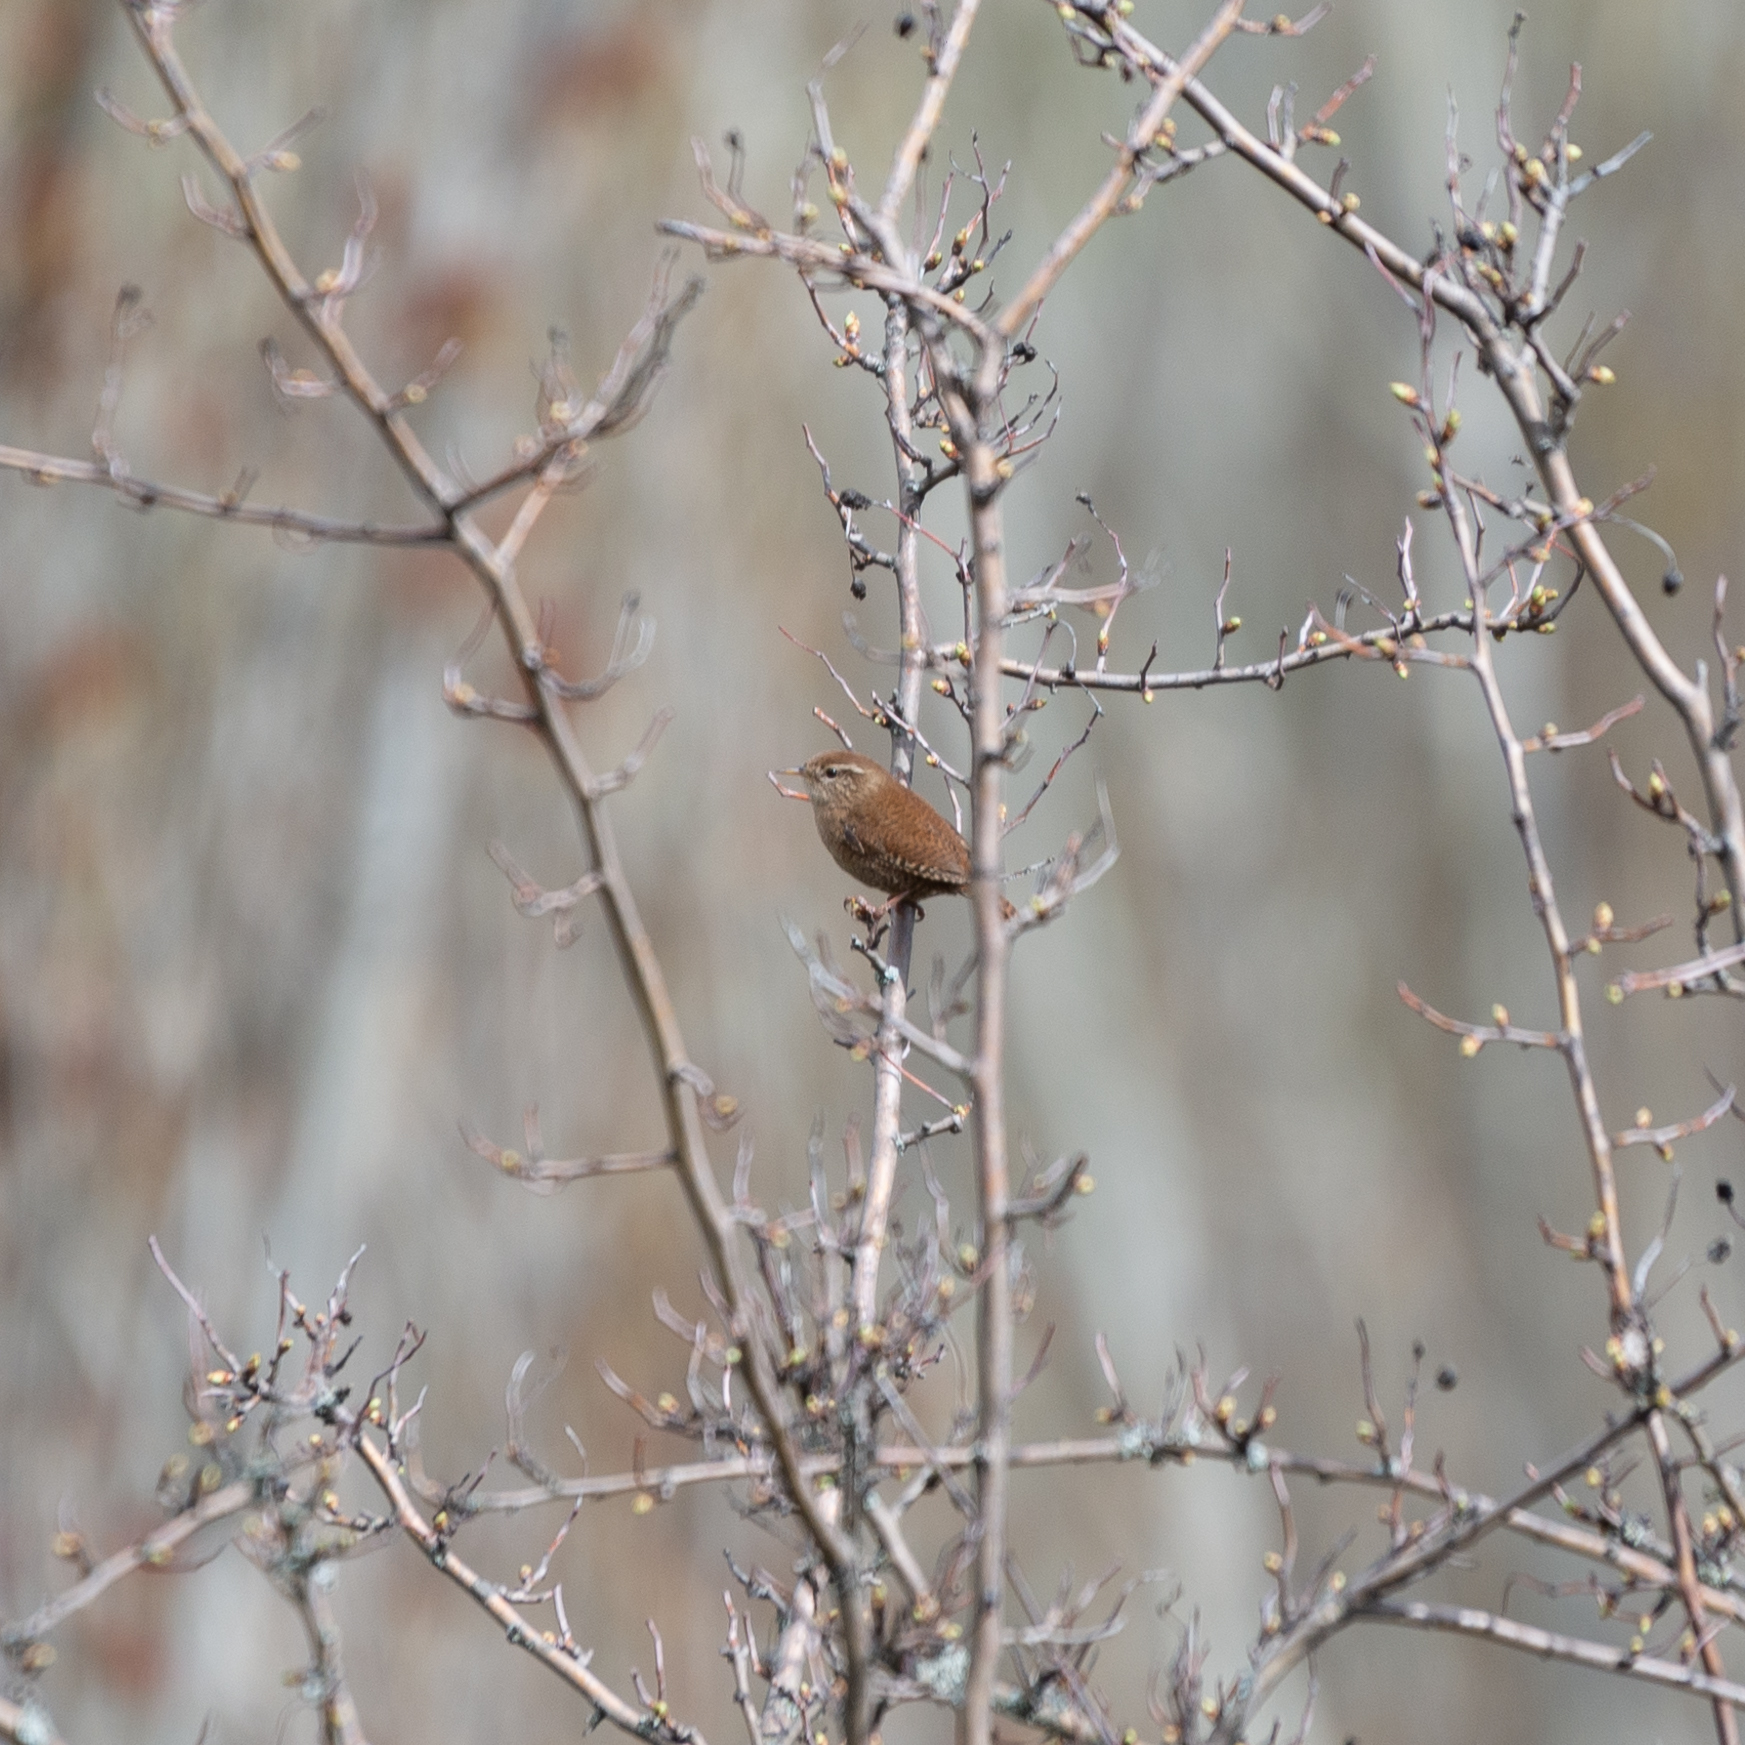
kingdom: Animalia
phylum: Chordata
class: Aves
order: Passeriformes
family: Troglodytidae
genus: Troglodytes
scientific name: Troglodytes troglodytes
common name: Eurasian wren
